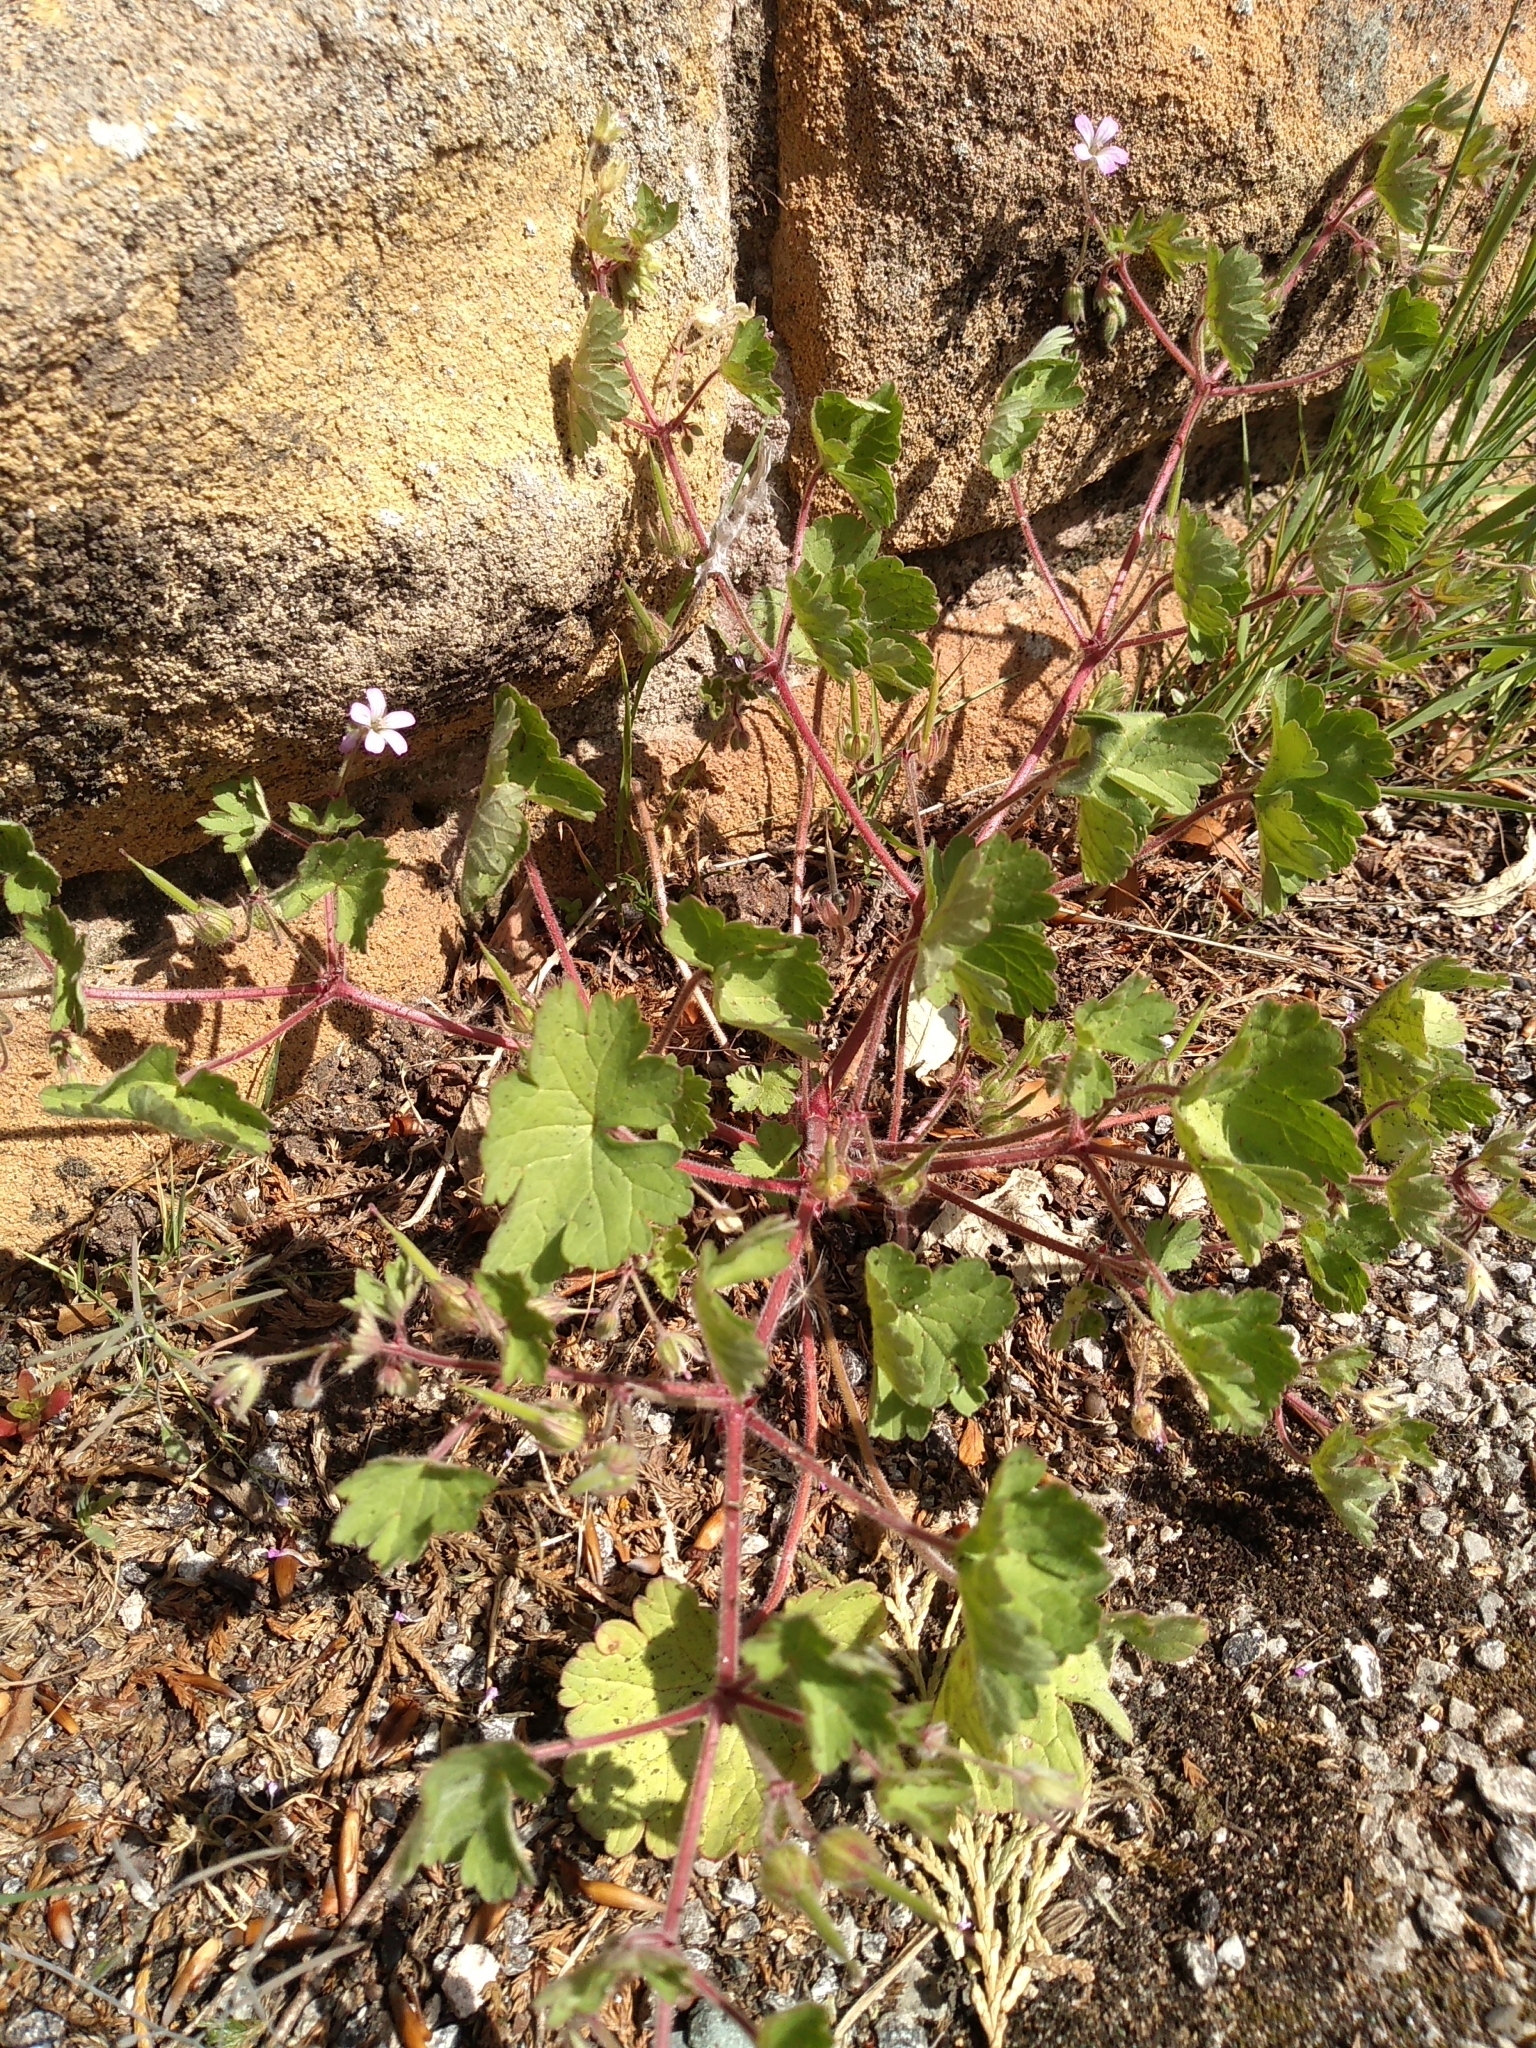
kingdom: Plantae
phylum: Tracheophyta
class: Magnoliopsida
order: Geraniales
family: Geraniaceae
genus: Geranium
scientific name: Geranium rotundifolium
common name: Round-leaved crane's-bill
